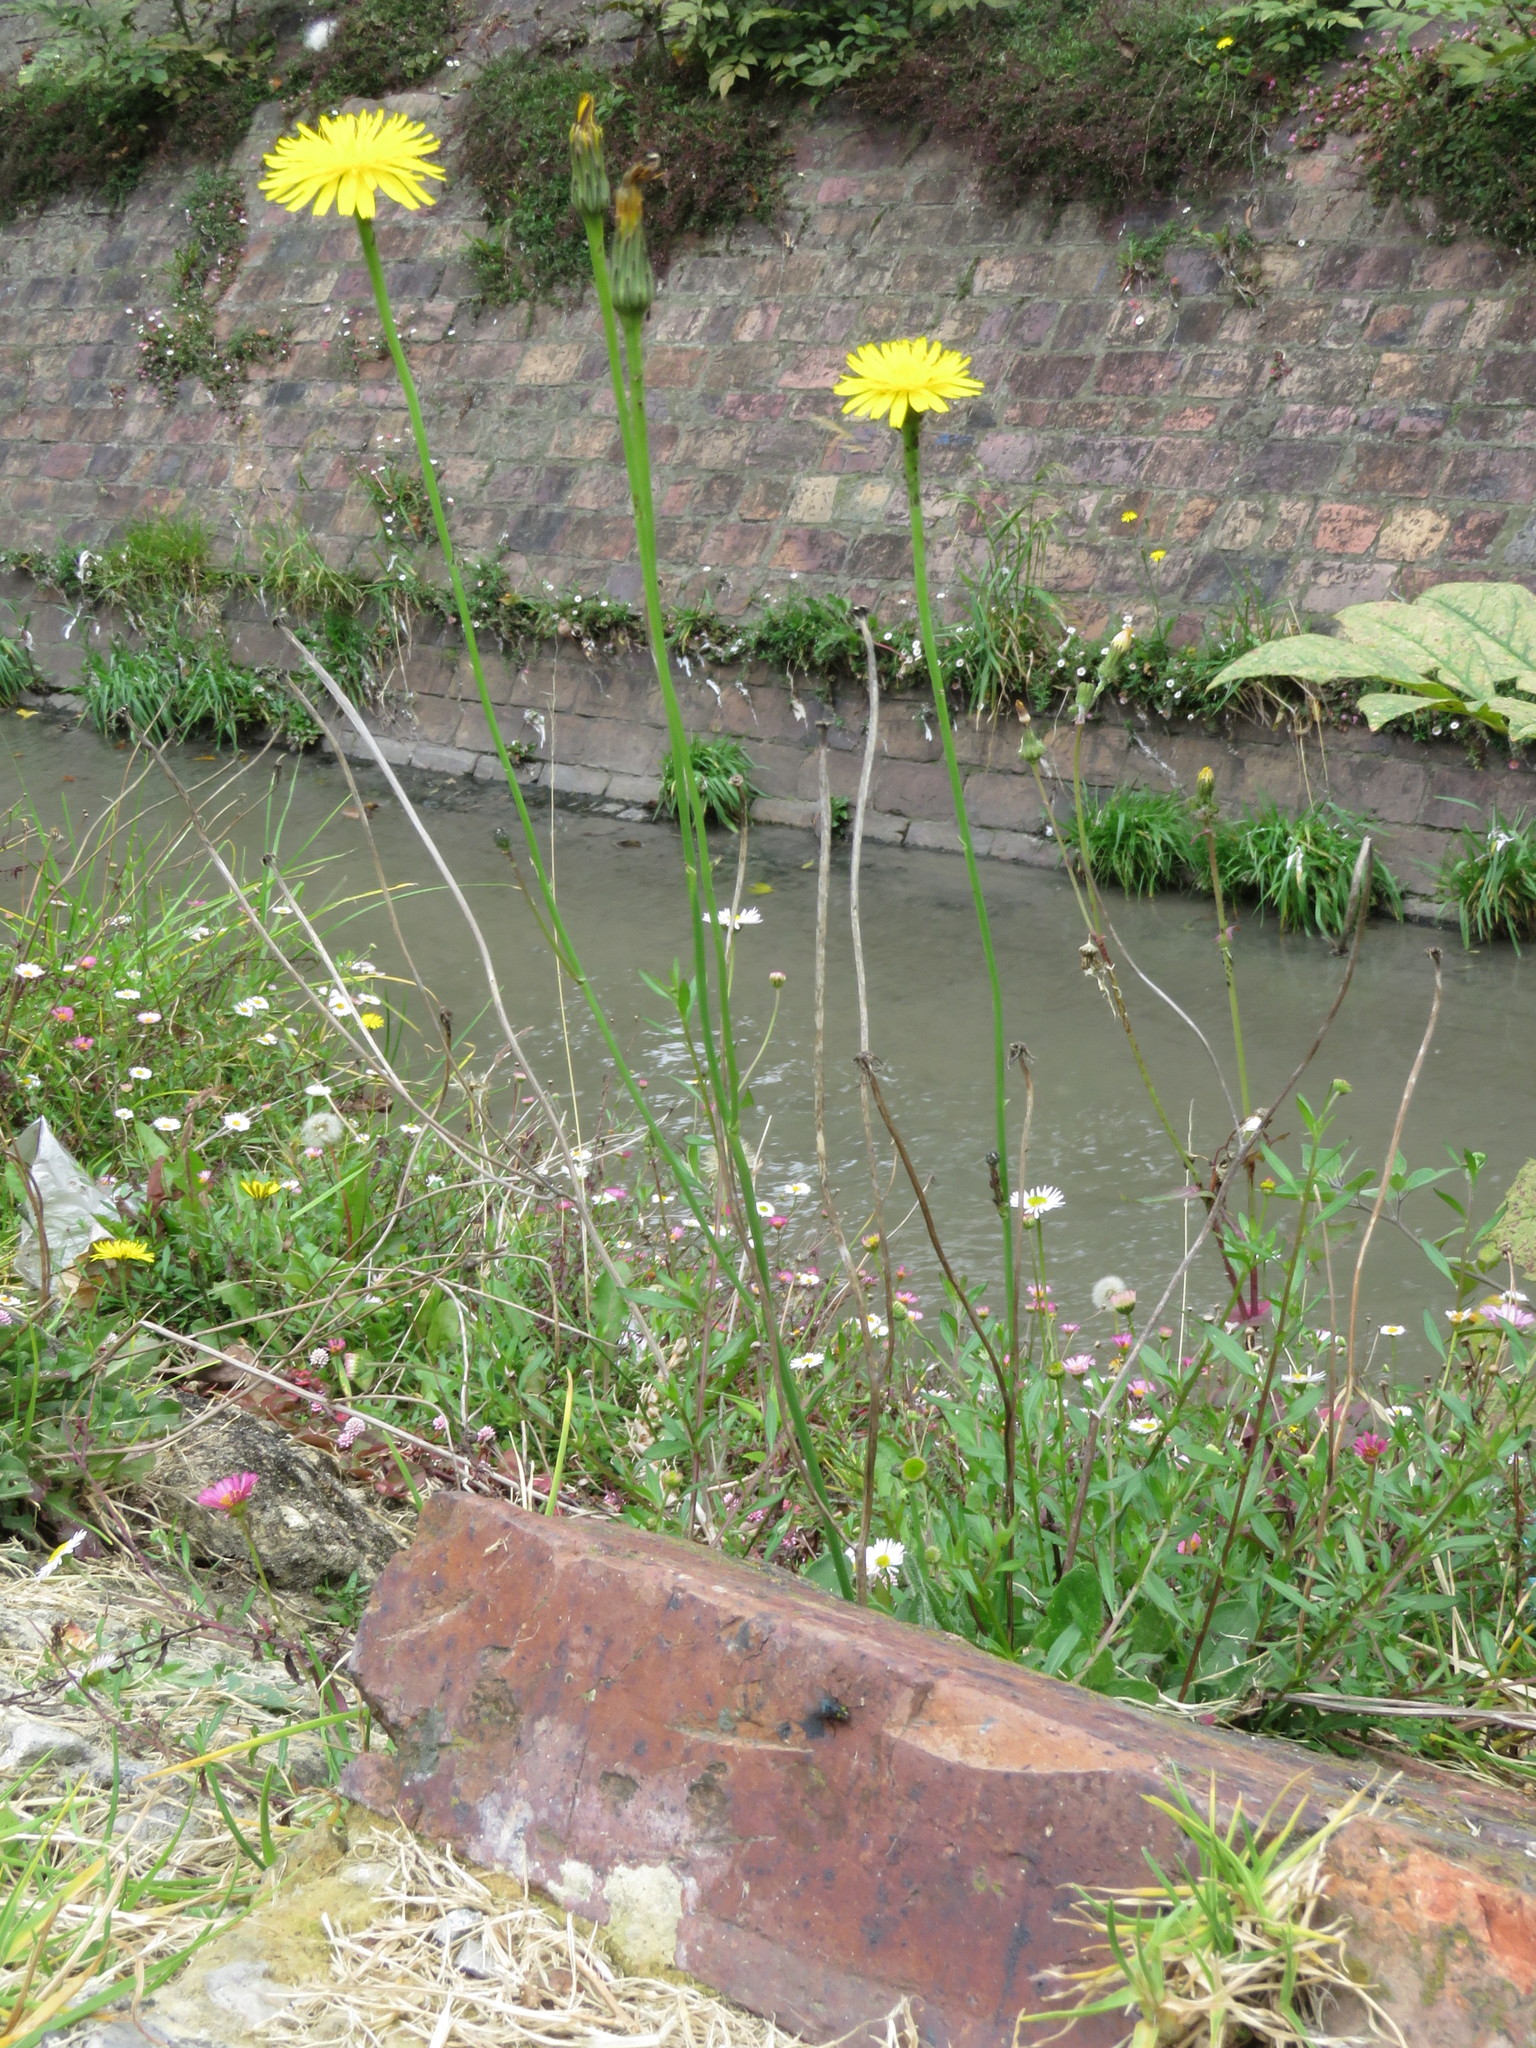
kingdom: Plantae
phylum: Tracheophyta
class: Magnoliopsida
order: Asterales
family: Asteraceae
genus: Hypochaeris
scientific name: Hypochaeris radicata
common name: Flatweed
